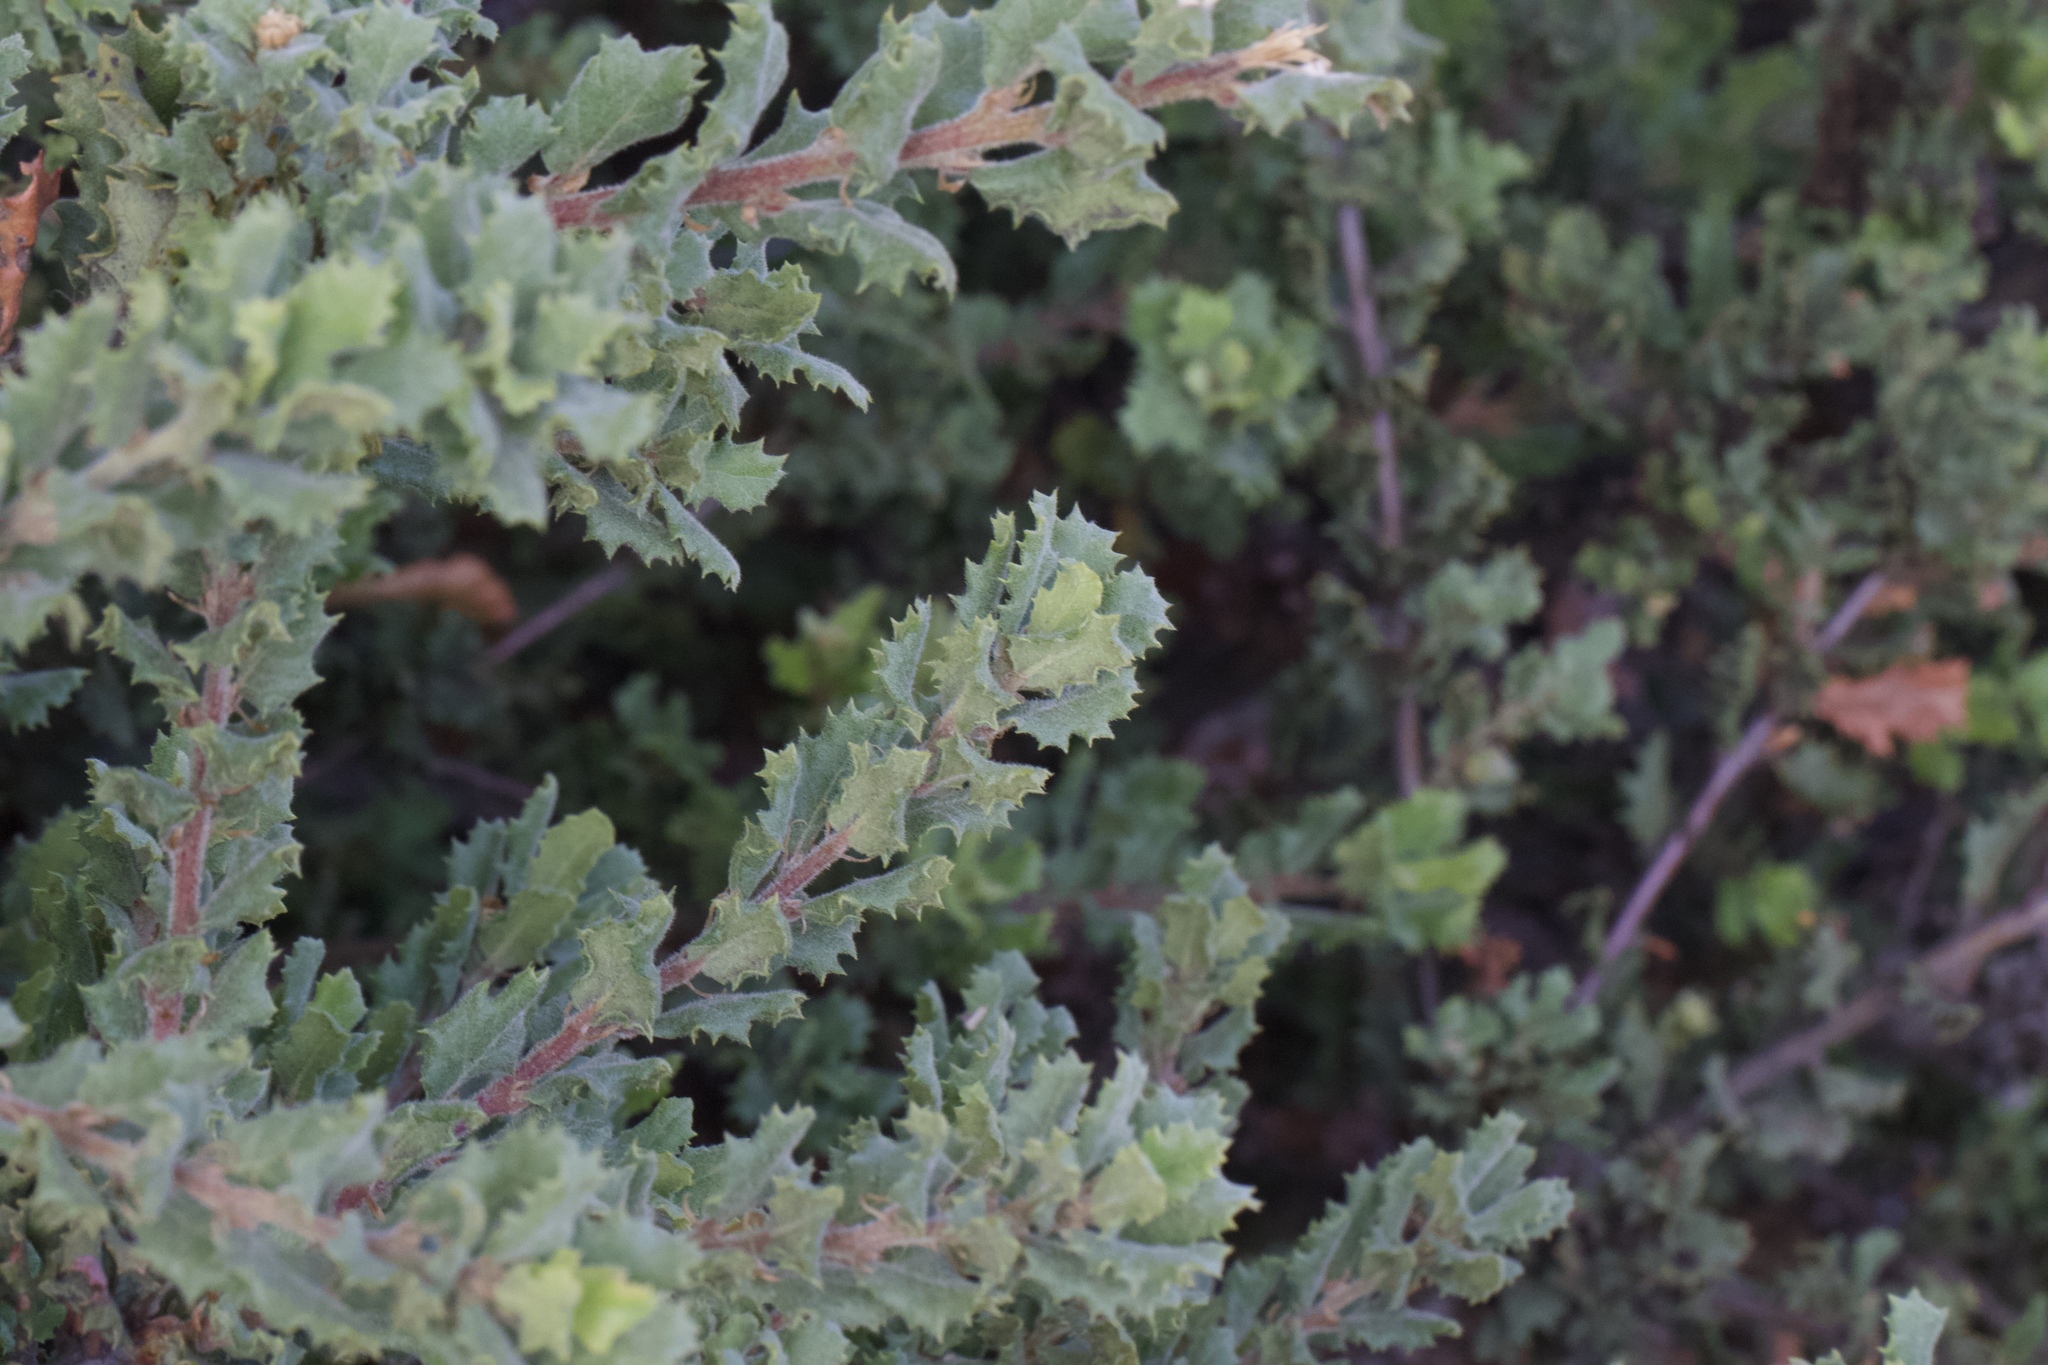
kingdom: Plantae
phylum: Tracheophyta
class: Magnoliopsida
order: Fagales
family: Fagaceae
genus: Quercus
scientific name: Quercus durata
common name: Leather oak
